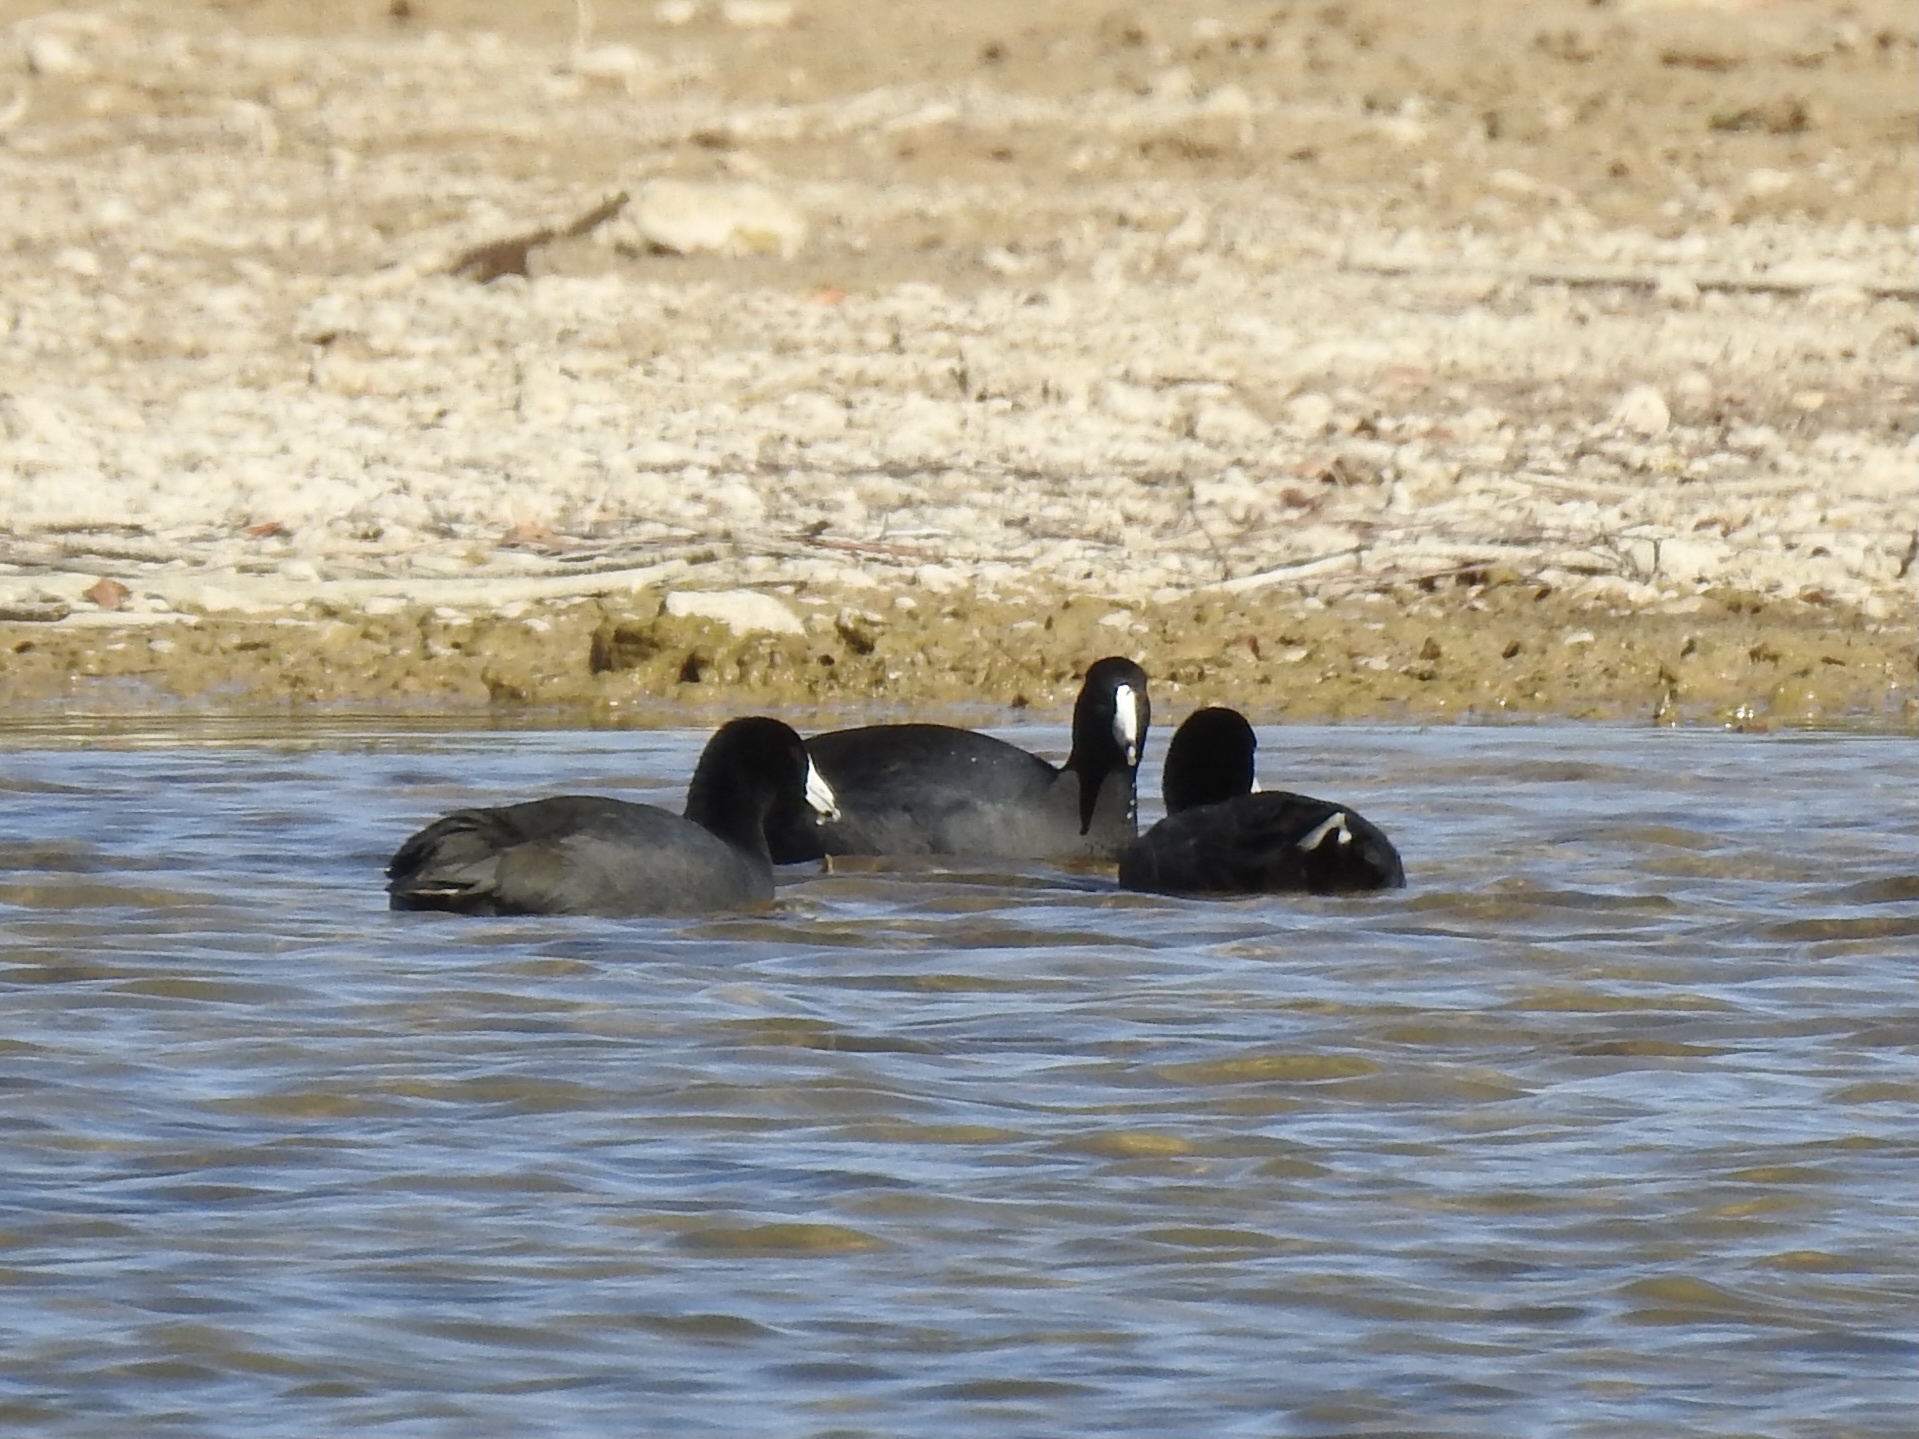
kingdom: Animalia
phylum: Chordata
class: Aves
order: Gruiformes
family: Rallidae
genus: Fulica
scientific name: Fulica americana
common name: American coot
